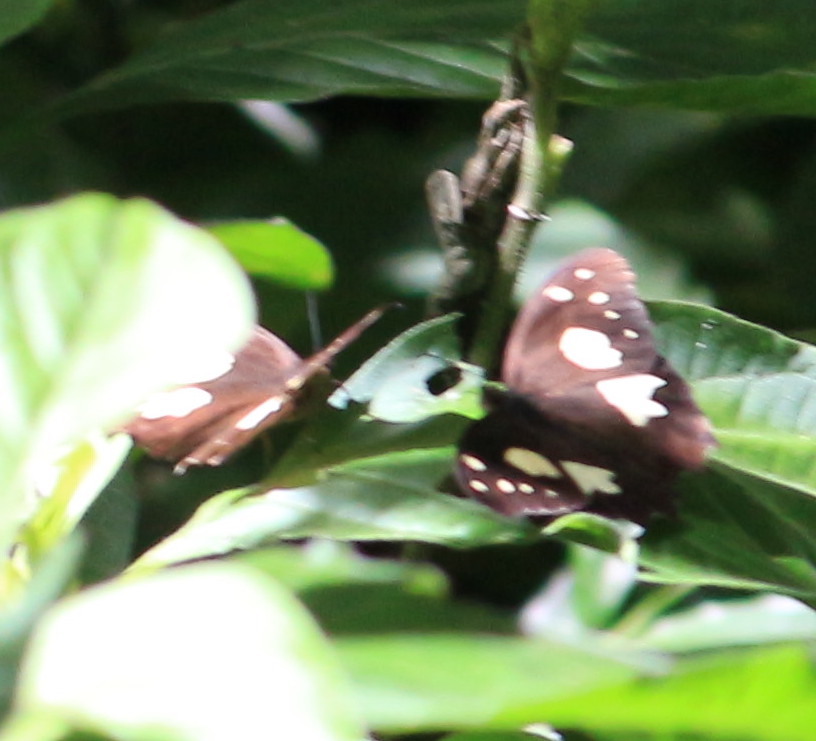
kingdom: Animalia
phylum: Arthropoda
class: Insecta
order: Lepidoptera
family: Nymphalidae
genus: Oxeoschistus
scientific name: Oxeoschistus tauropolis
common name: Starred oxeo
